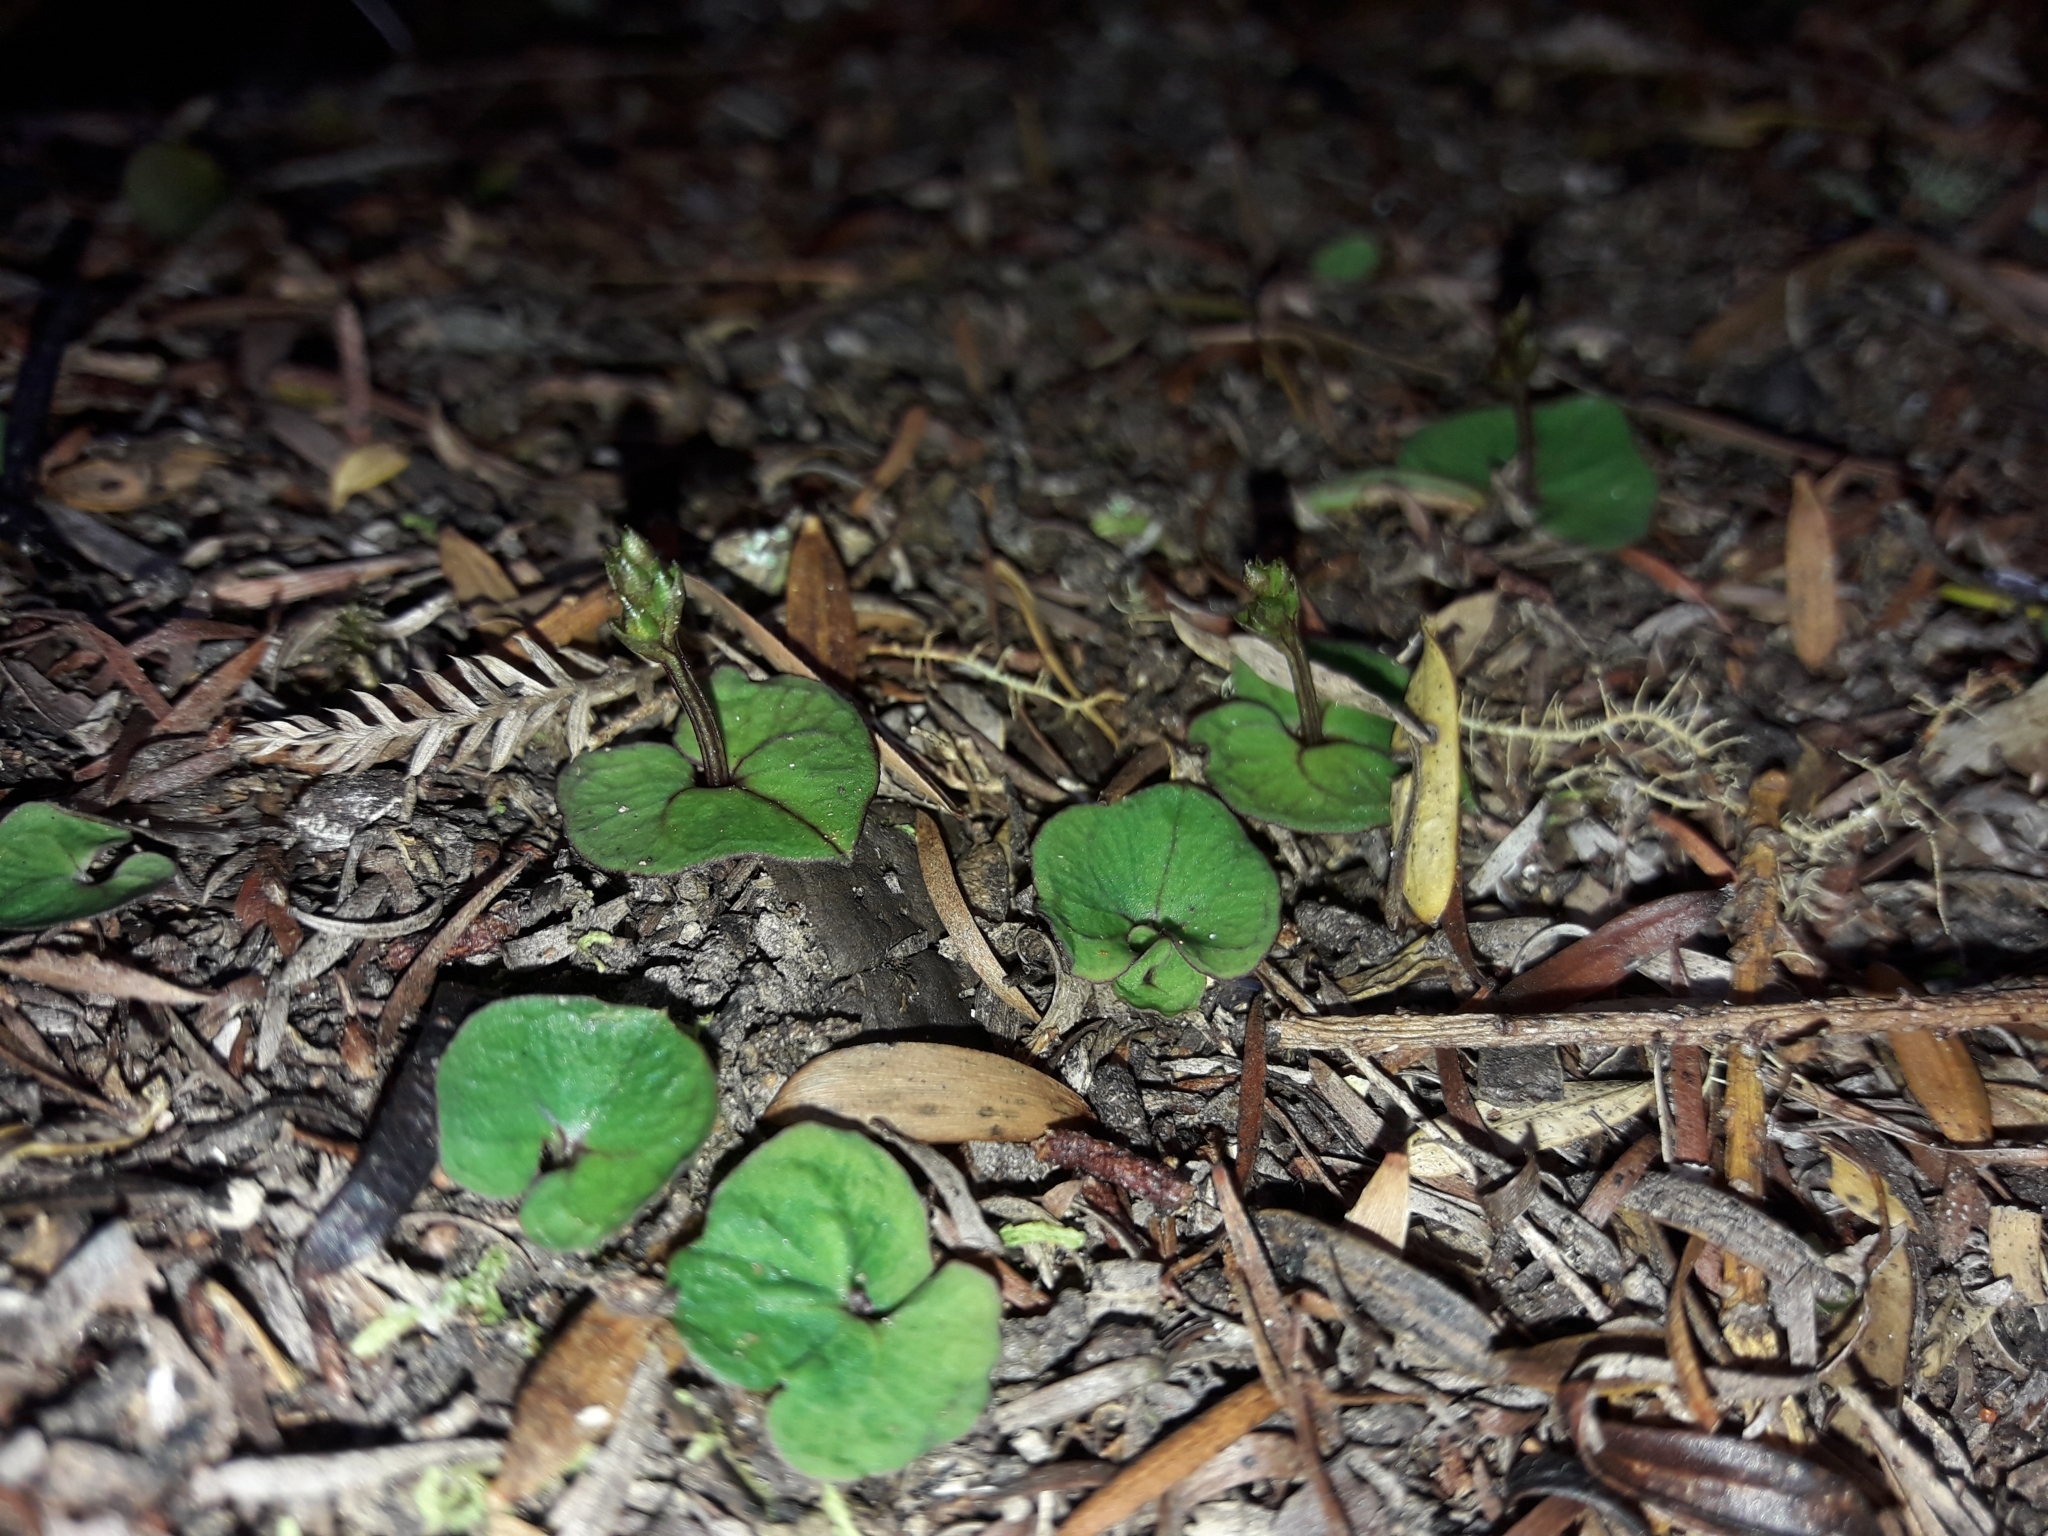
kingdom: Plantae
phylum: Tracheophyta
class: Liliopsida
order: Asparagales
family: Orchidaceae
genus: Acianthus
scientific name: Acianthus sinclairii
